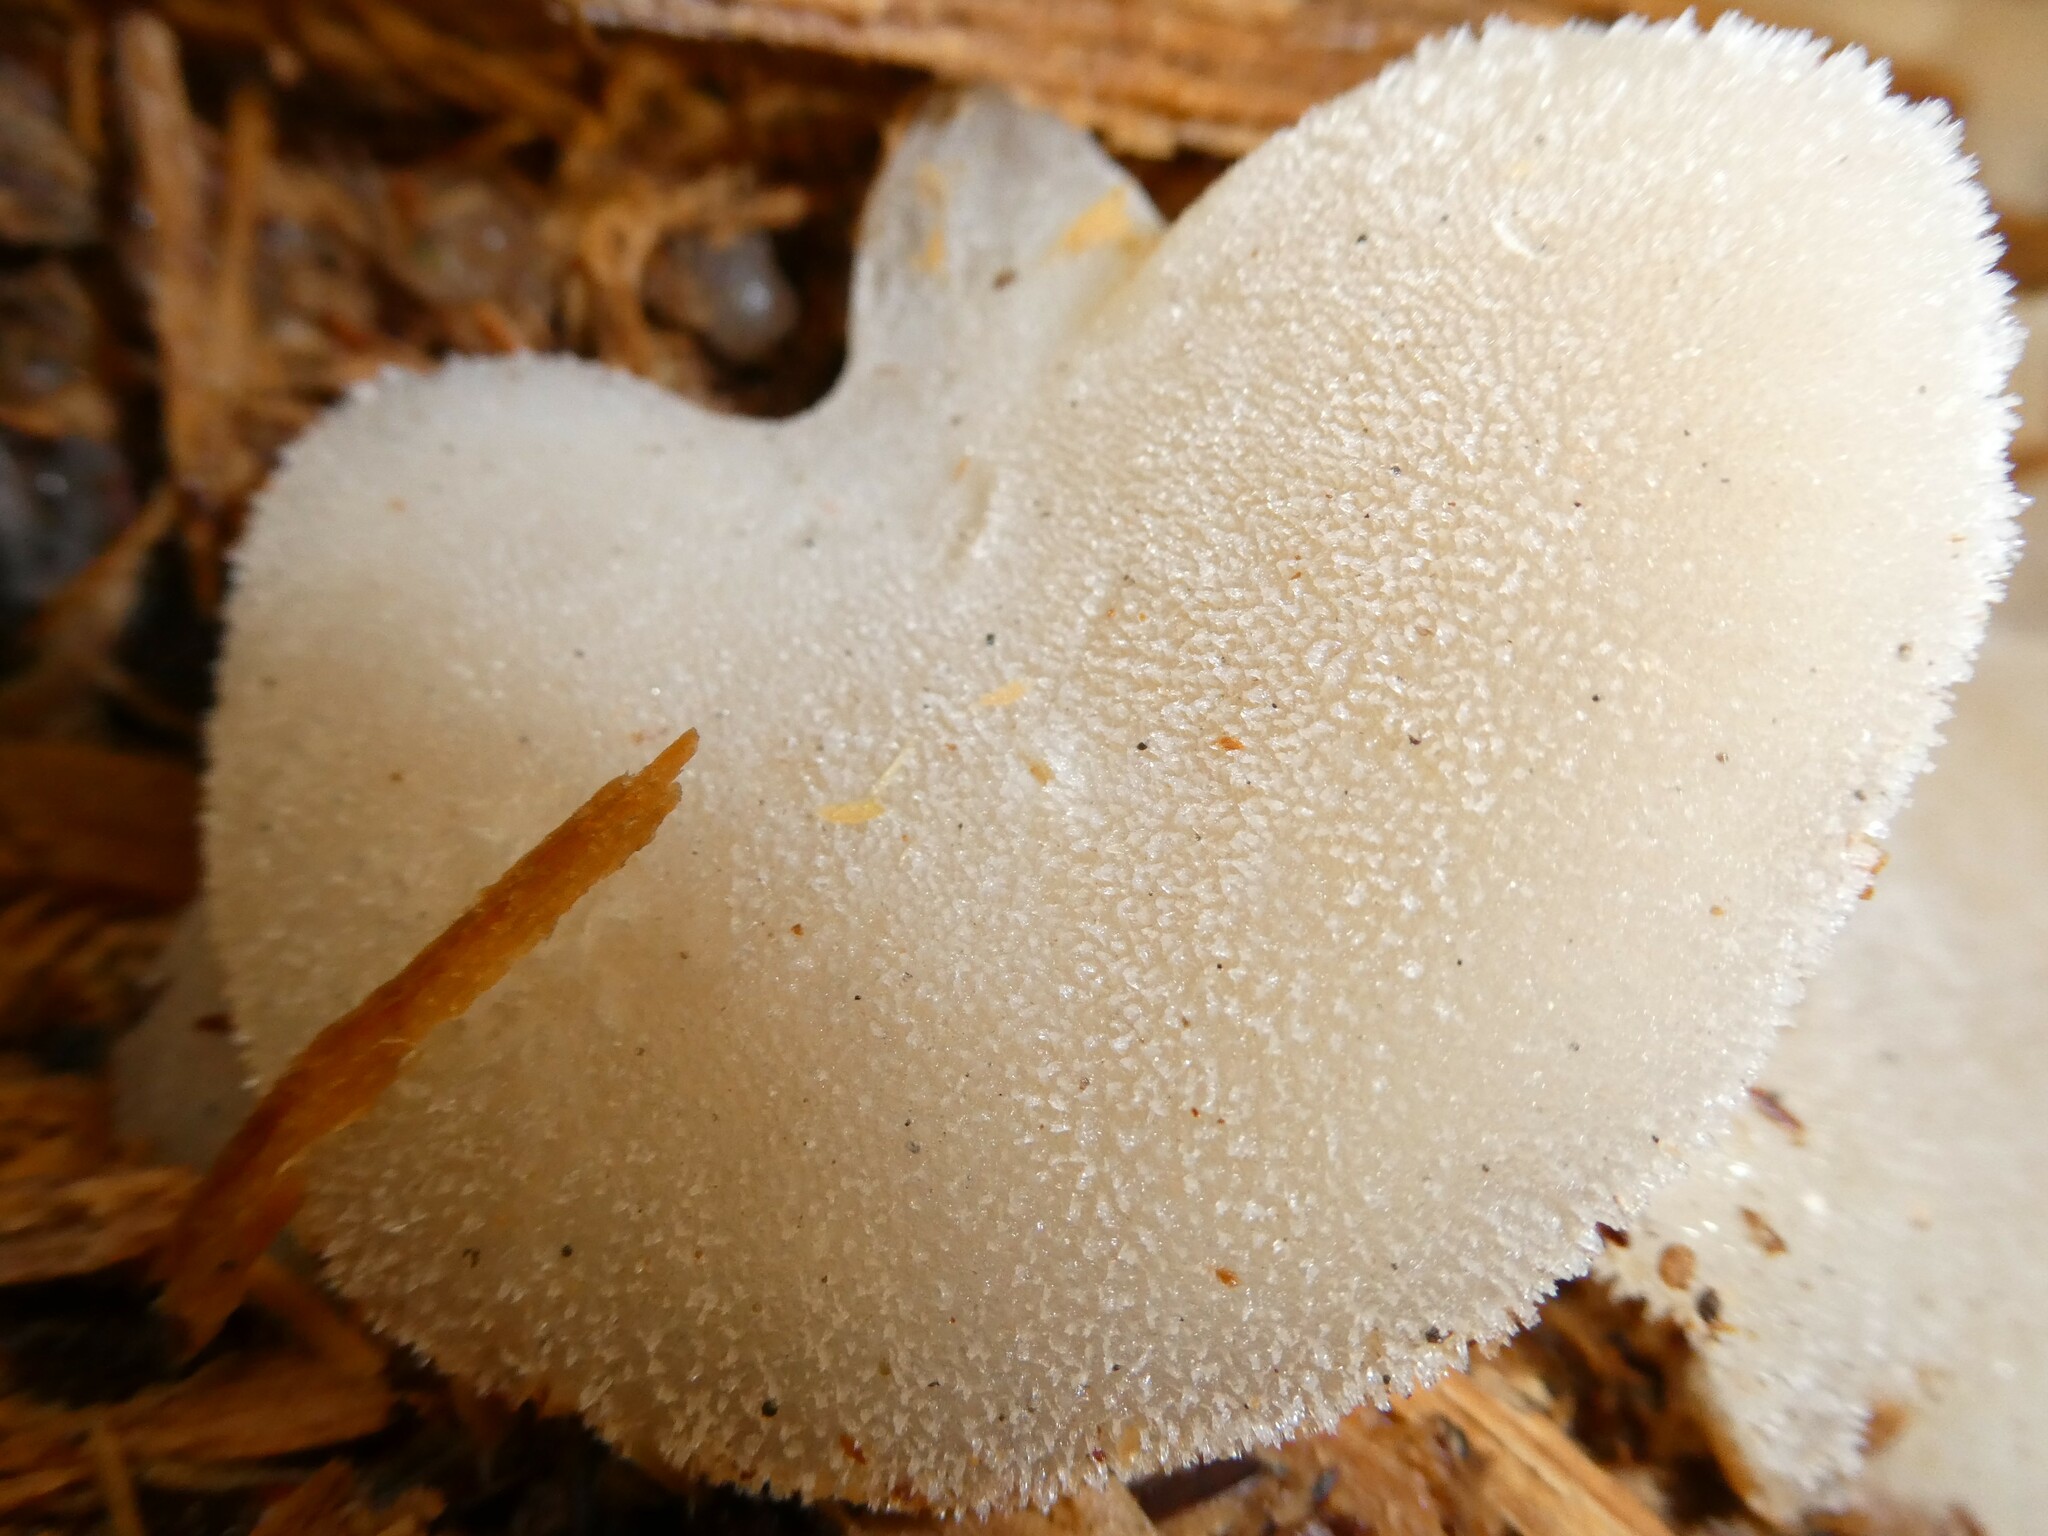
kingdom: Fungi
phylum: Basidiomycota
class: Agaricomycetes
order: Auriculariales
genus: Pseudohydnum
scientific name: Pseudohydnum gelatinosum
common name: Jelly tongue
